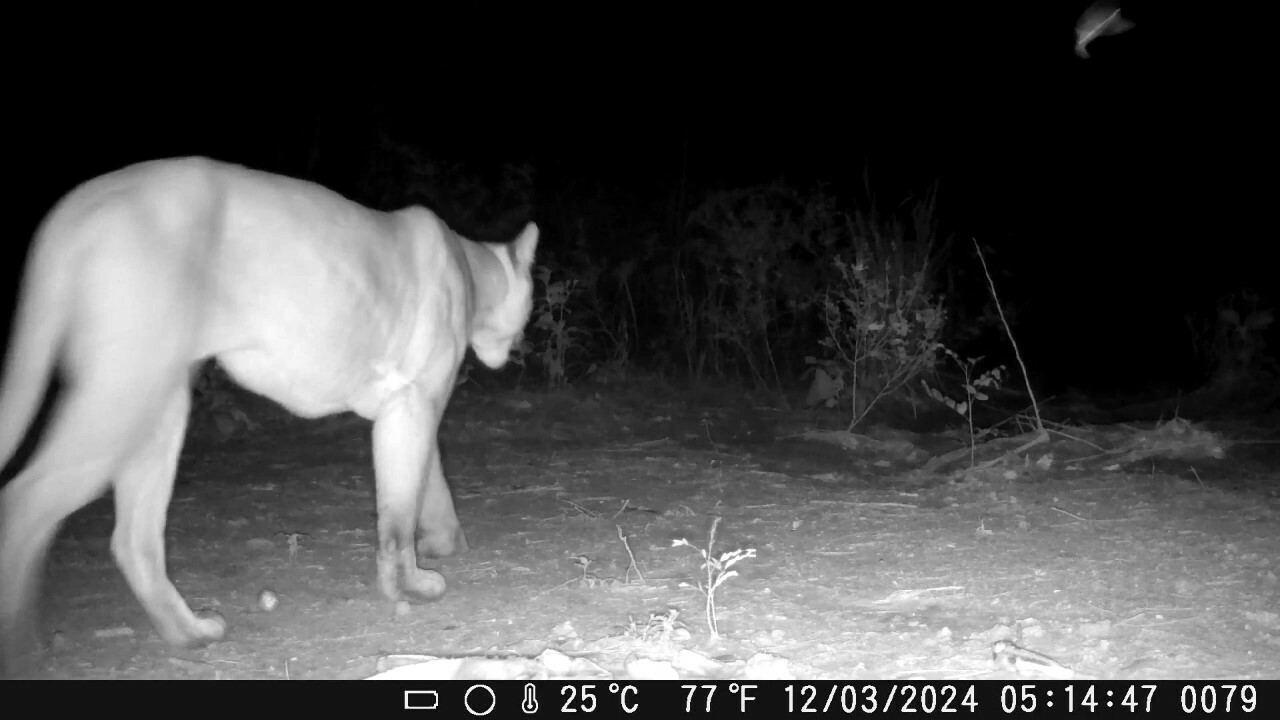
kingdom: Animalia
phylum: Chordata
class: Mammalia
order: Carnivora
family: Felidae
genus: Puma
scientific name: Puma concolor
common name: Puma
